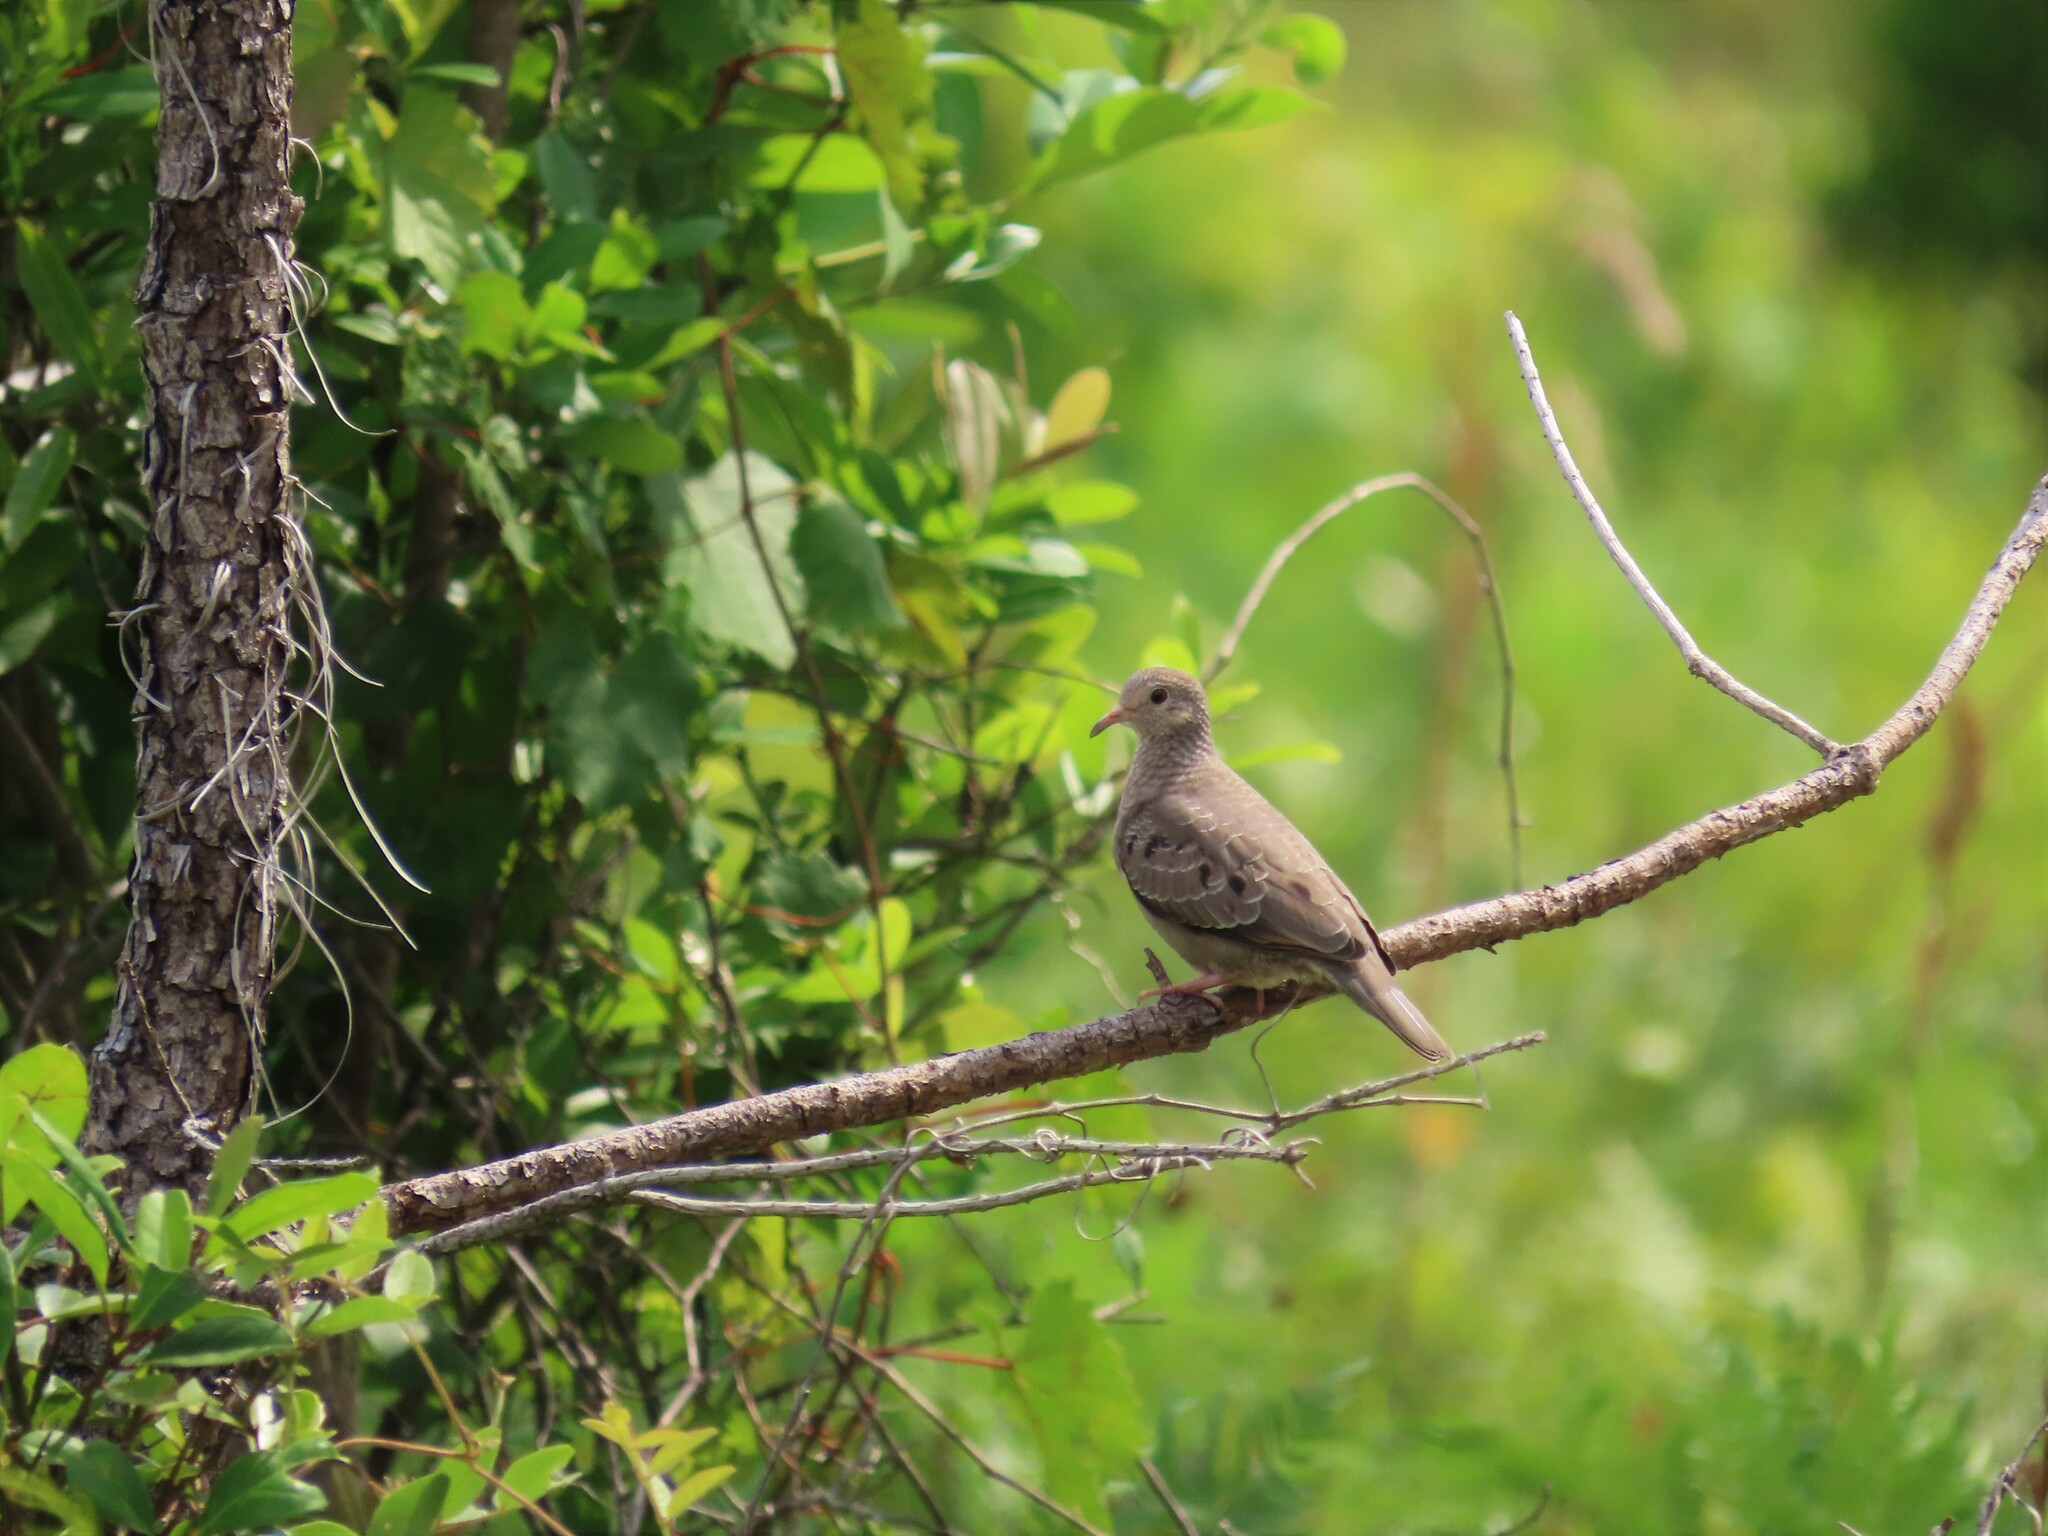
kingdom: Animalia
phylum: Chordata
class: Aves
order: Columbiformes
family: Columbidae
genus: Columbina
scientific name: Columbina passerina
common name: Common ground-dove
